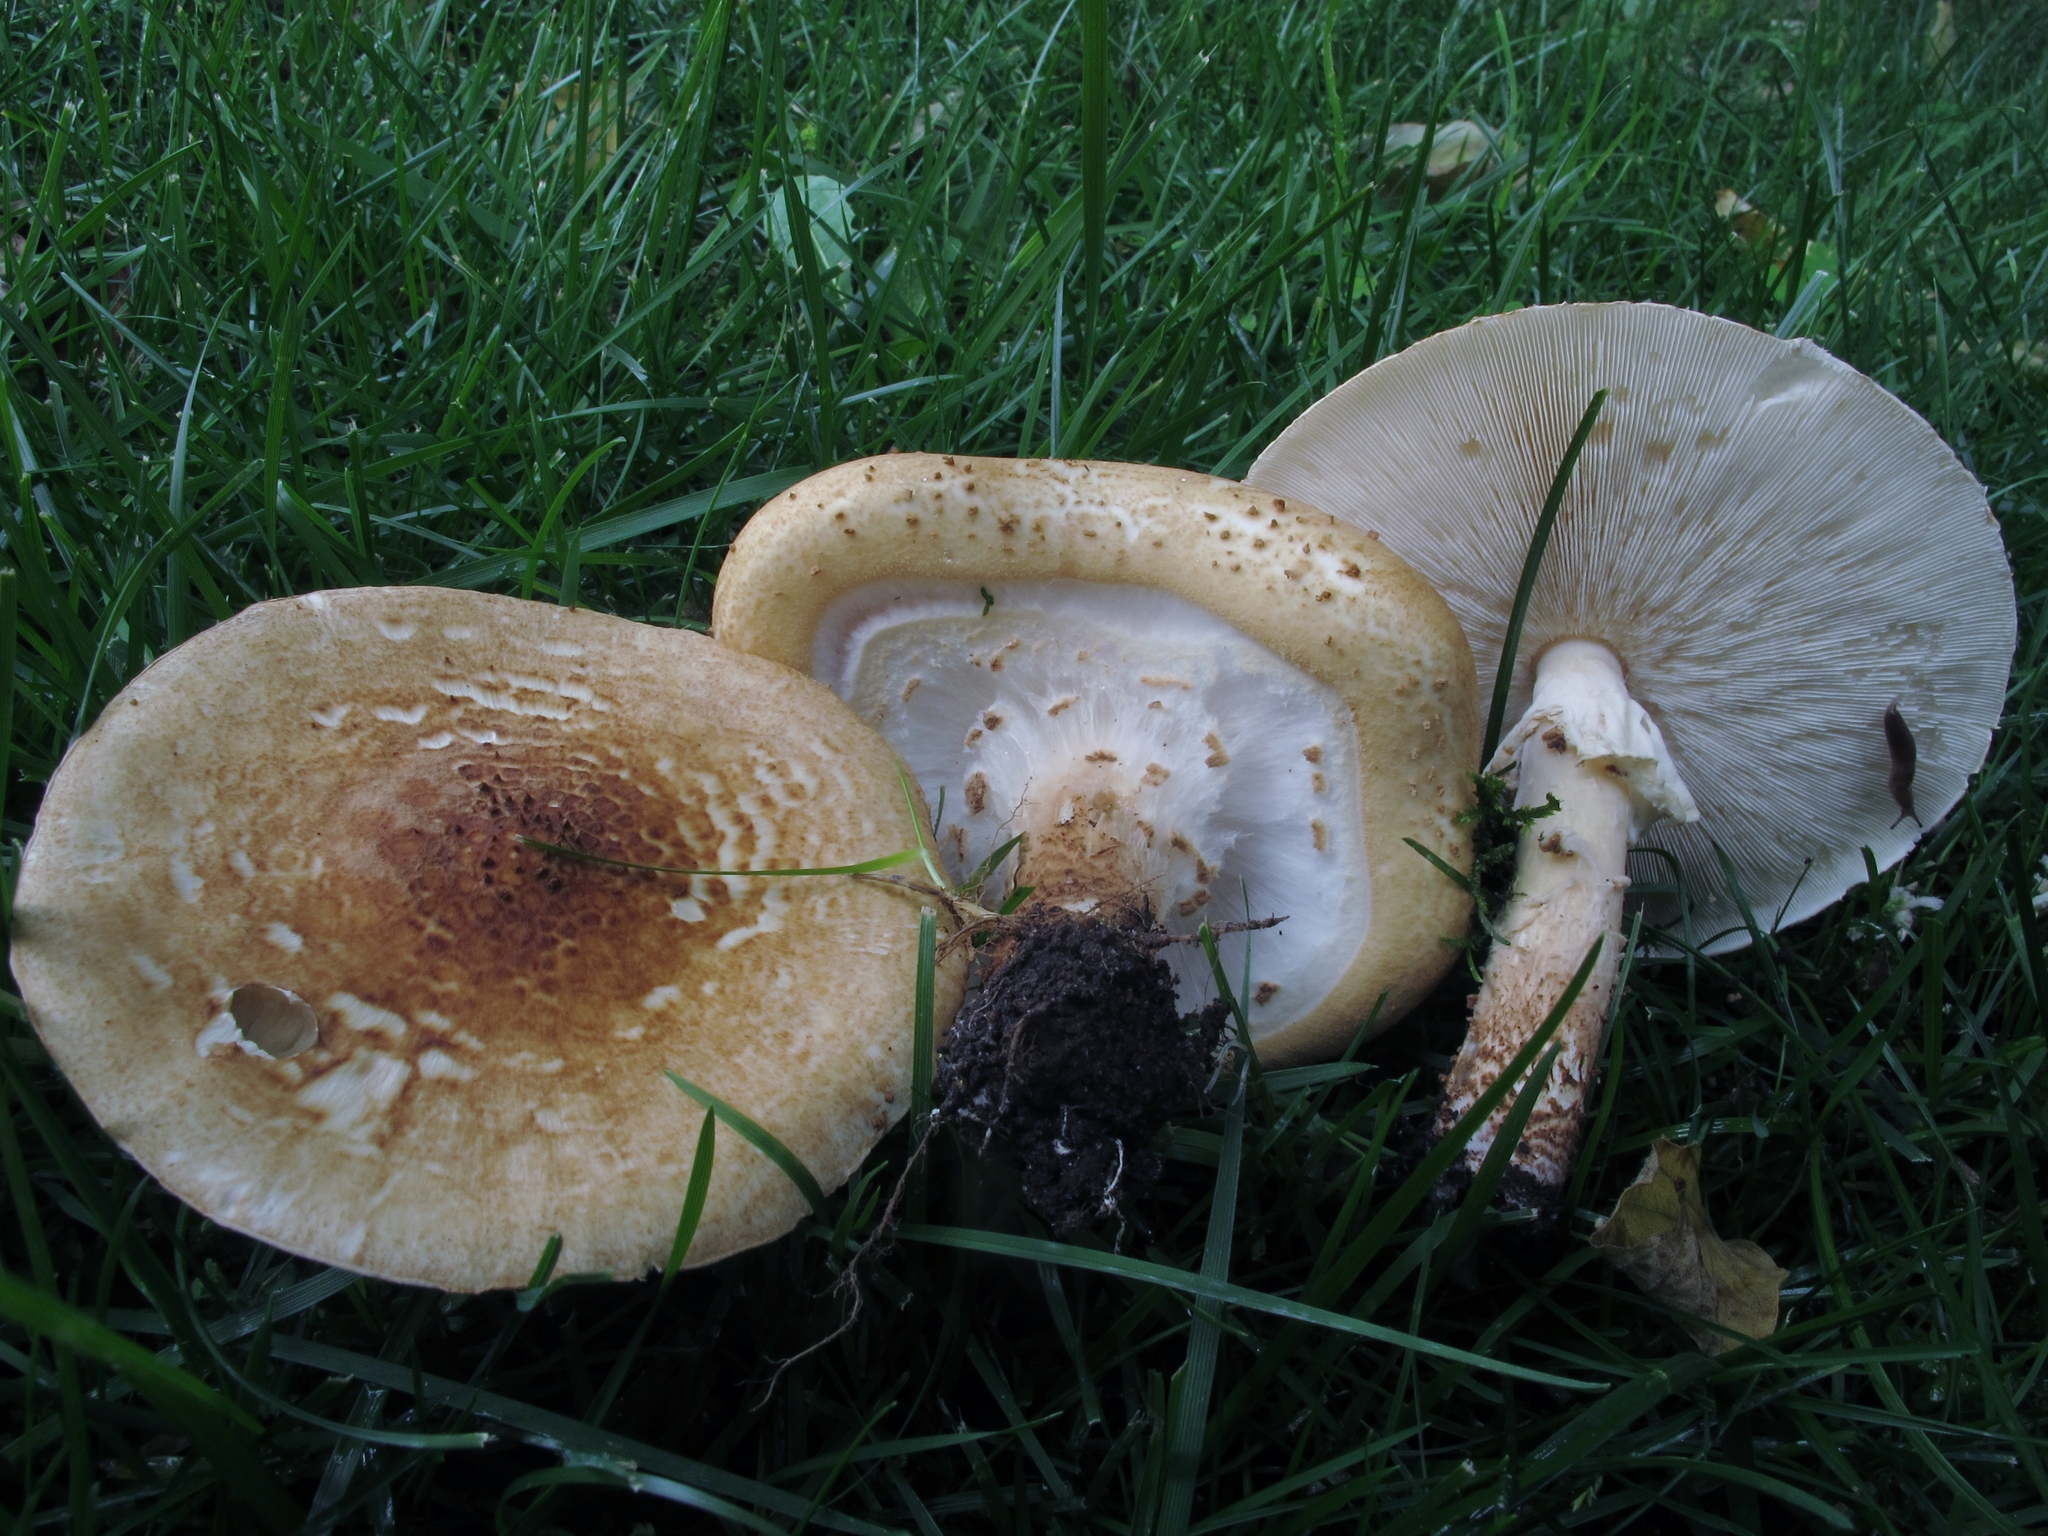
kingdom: Fungi
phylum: Basidiomycota
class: Agaricomycetes
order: Agaricales
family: Agaricaceae
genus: Echinoderma
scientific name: Echinoderma asperum
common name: Freckled dapperling
